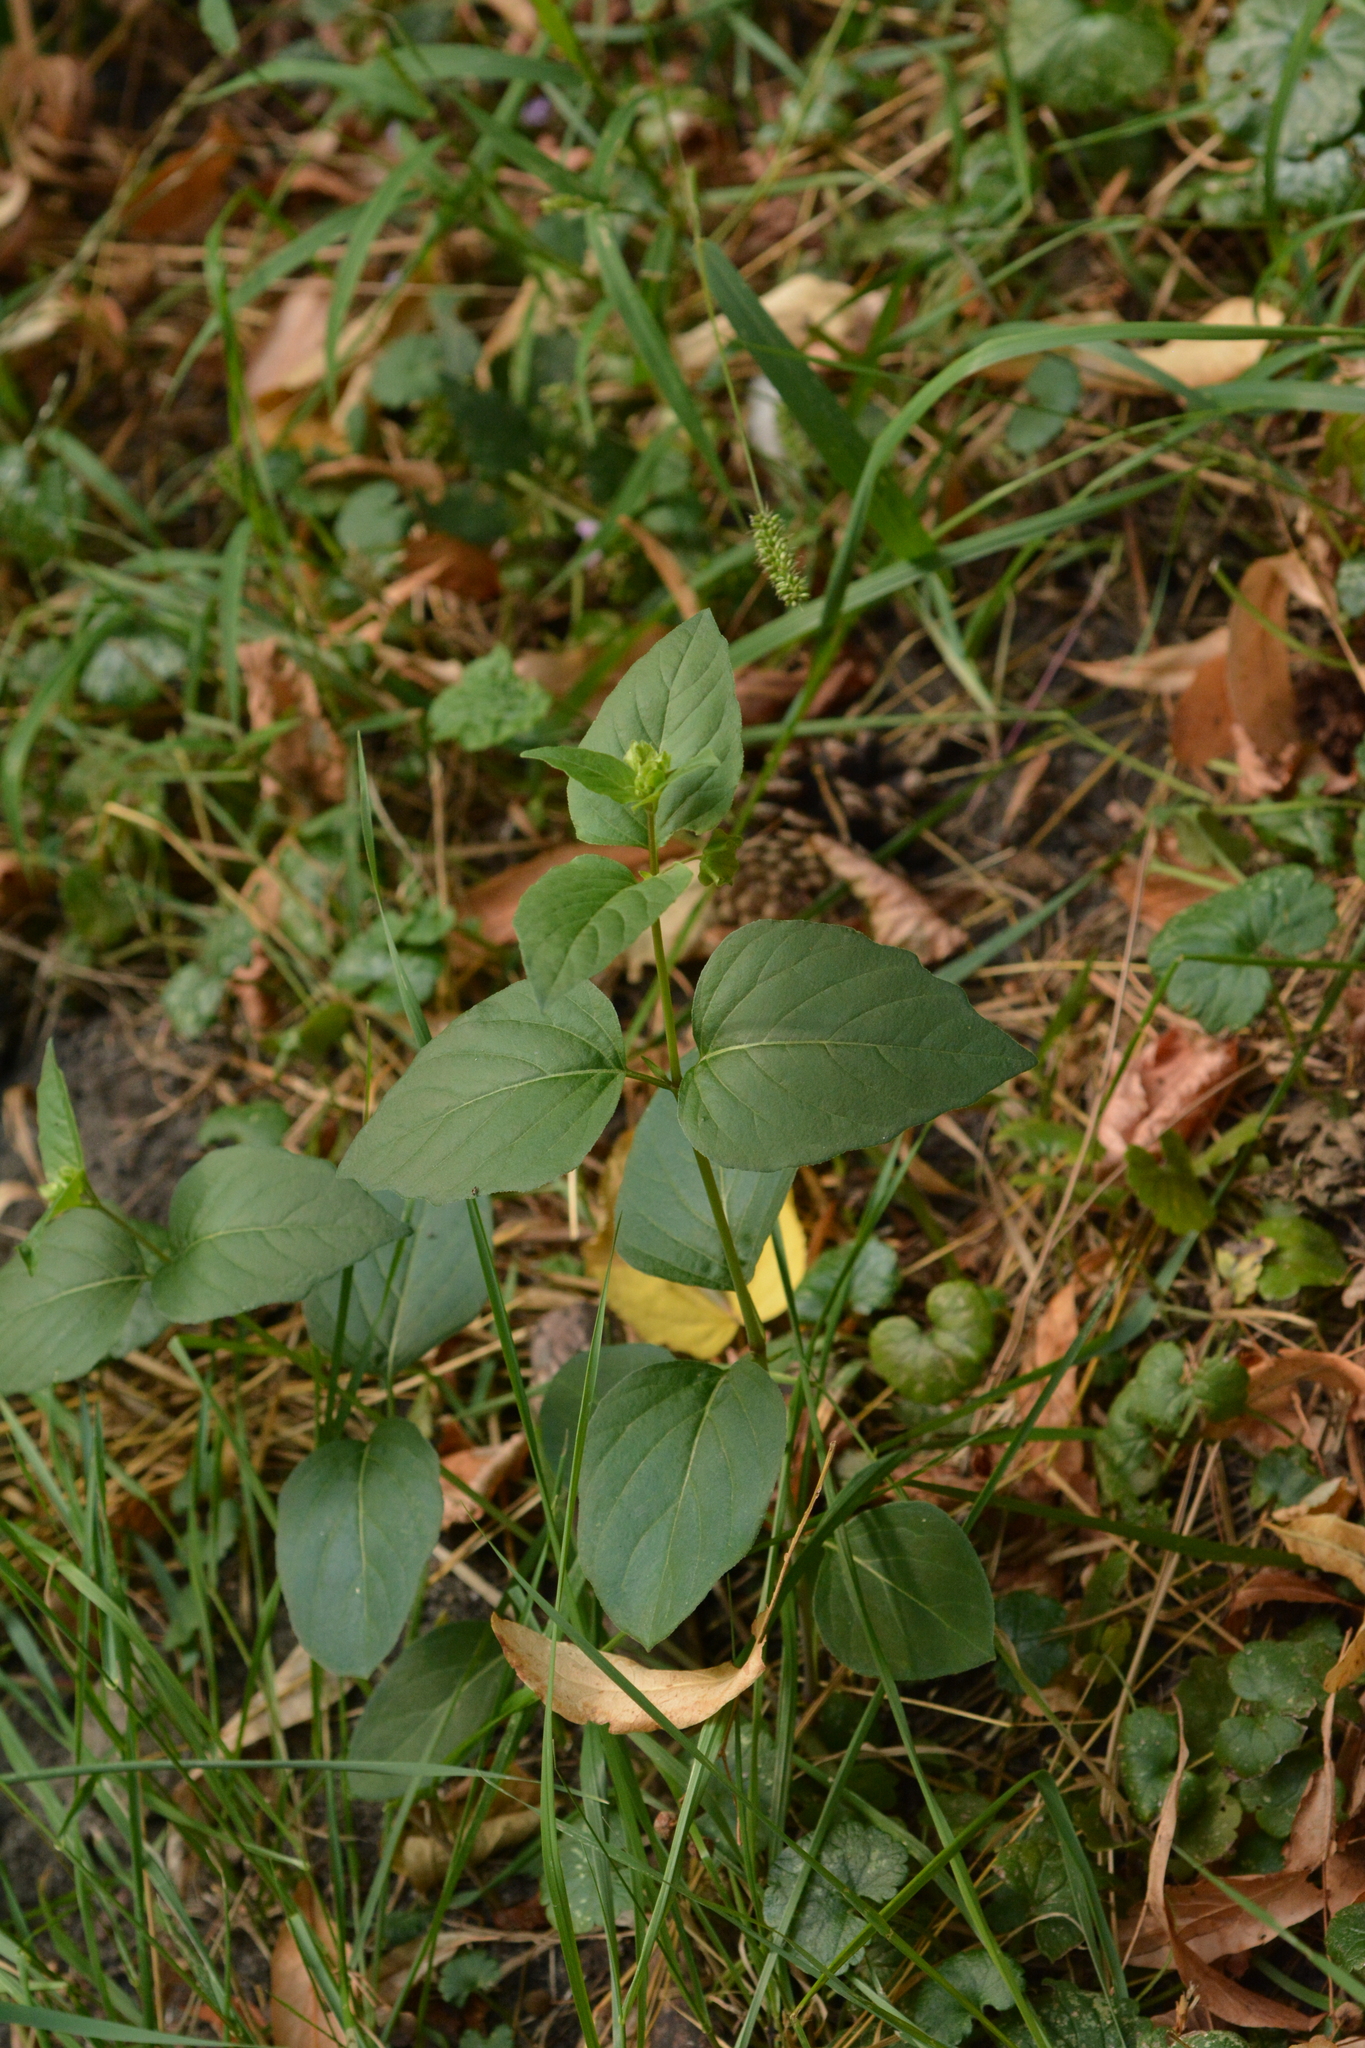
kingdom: Plantae
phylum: Tracheophyta
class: Magnoliopsida
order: Caryophyllales
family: Nyctaginaceae
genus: Mirabilis
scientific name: Mirabilis nyctaginea
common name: Umbrella wort
